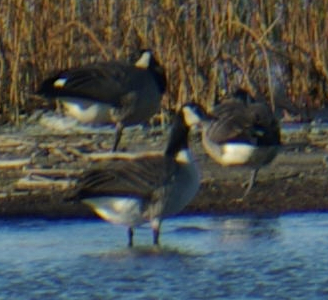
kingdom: Animalia
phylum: Chordata
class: Aves
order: Anseriformes
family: Anatidae
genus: Branta
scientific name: Branta canadensis
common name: Canada goose
